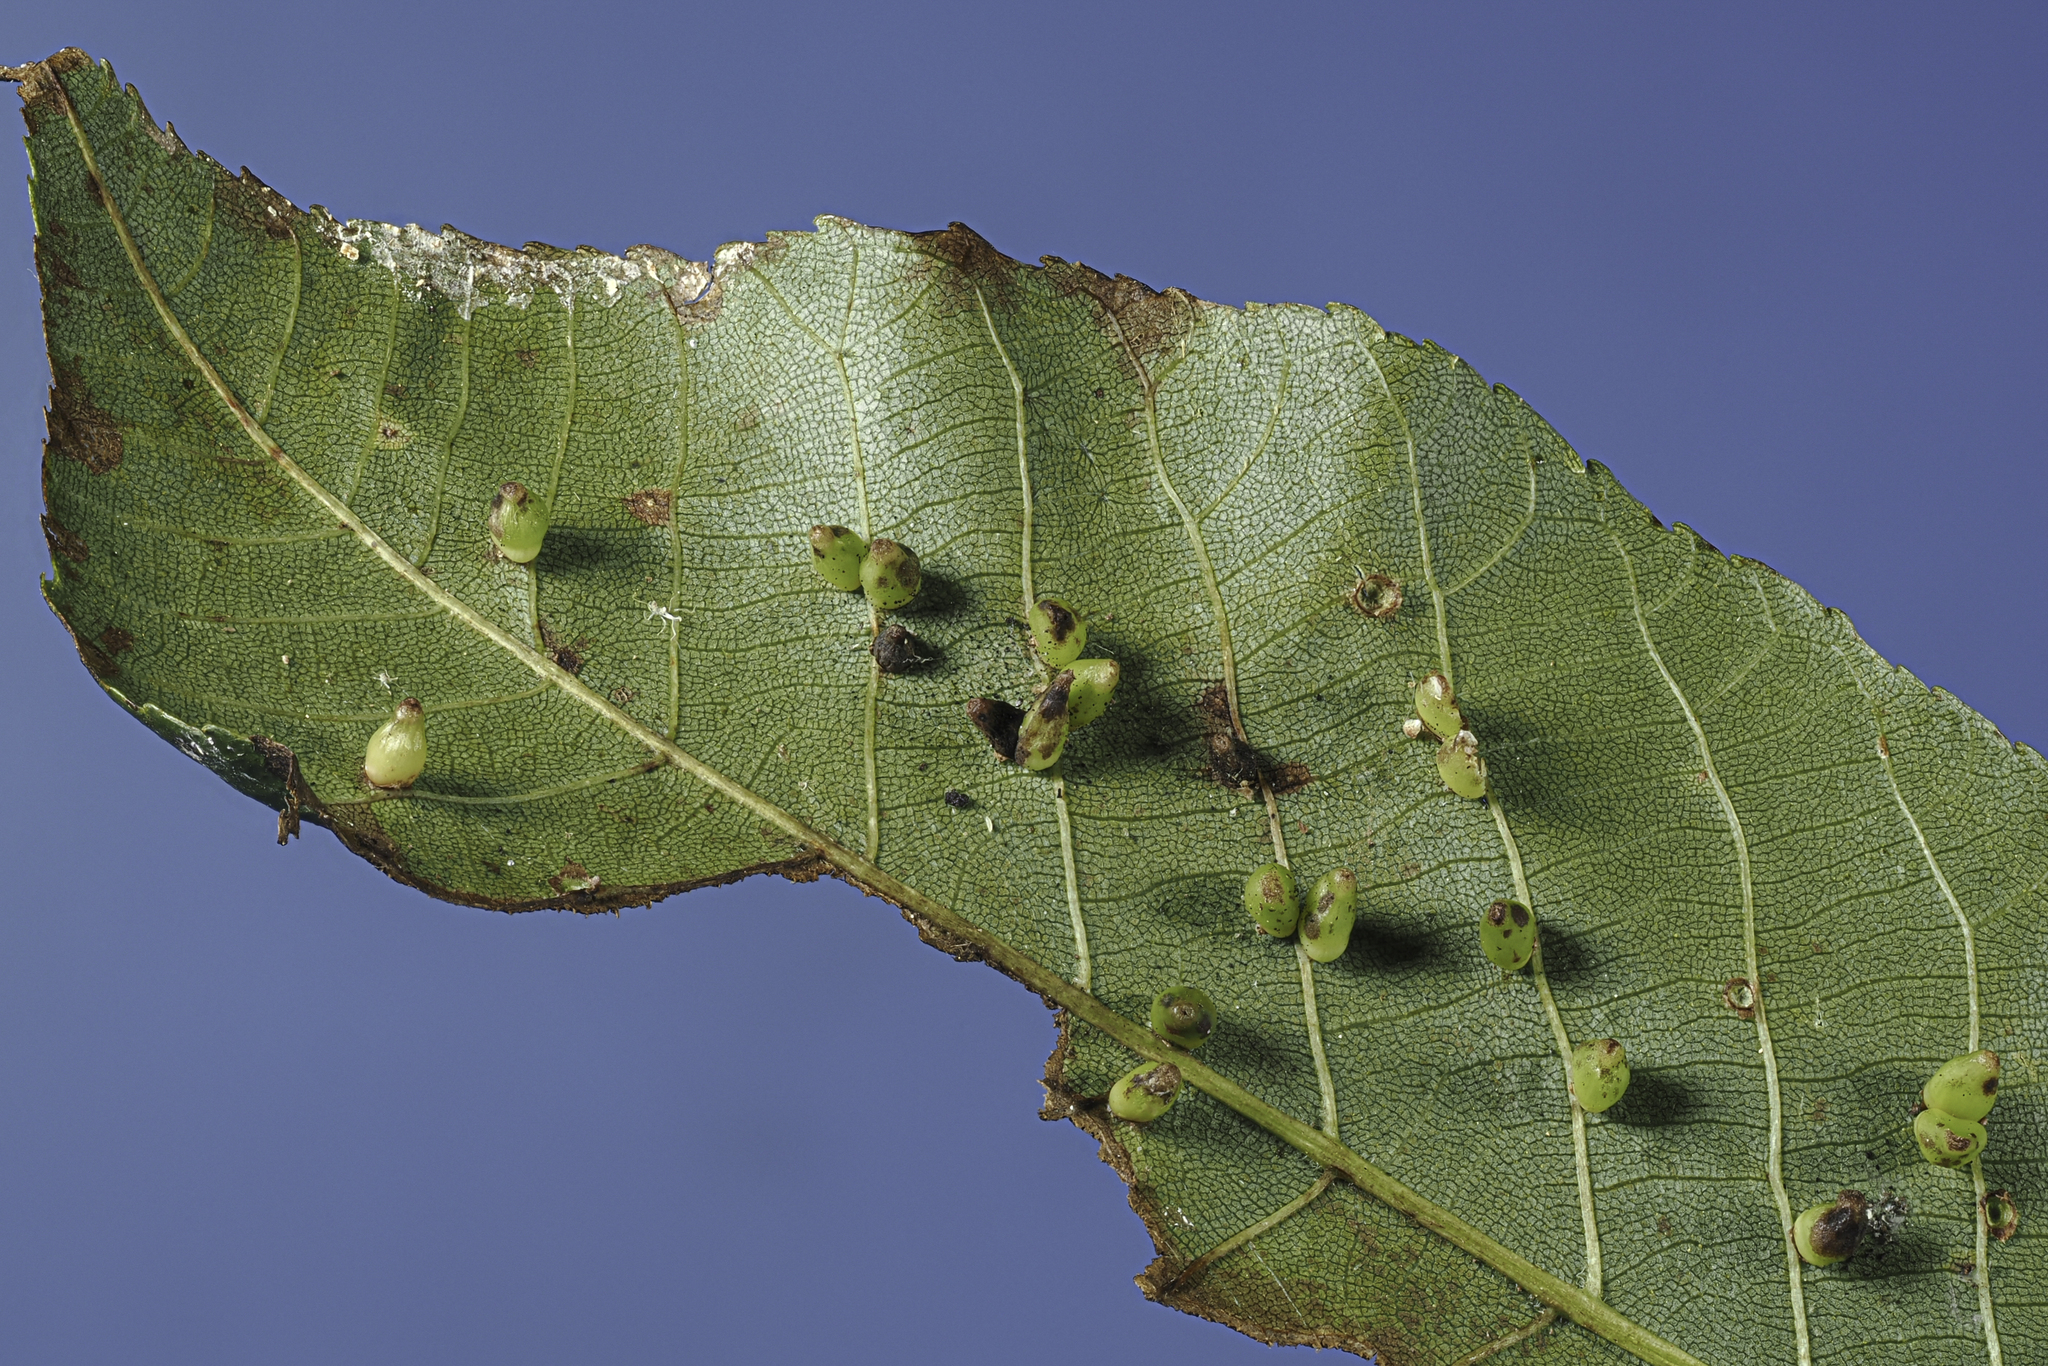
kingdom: Animalia
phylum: Arthropoda
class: Insecta
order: Diptera
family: Cecidomyiidae
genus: Caryomyia
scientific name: Caryomyia ovalis
